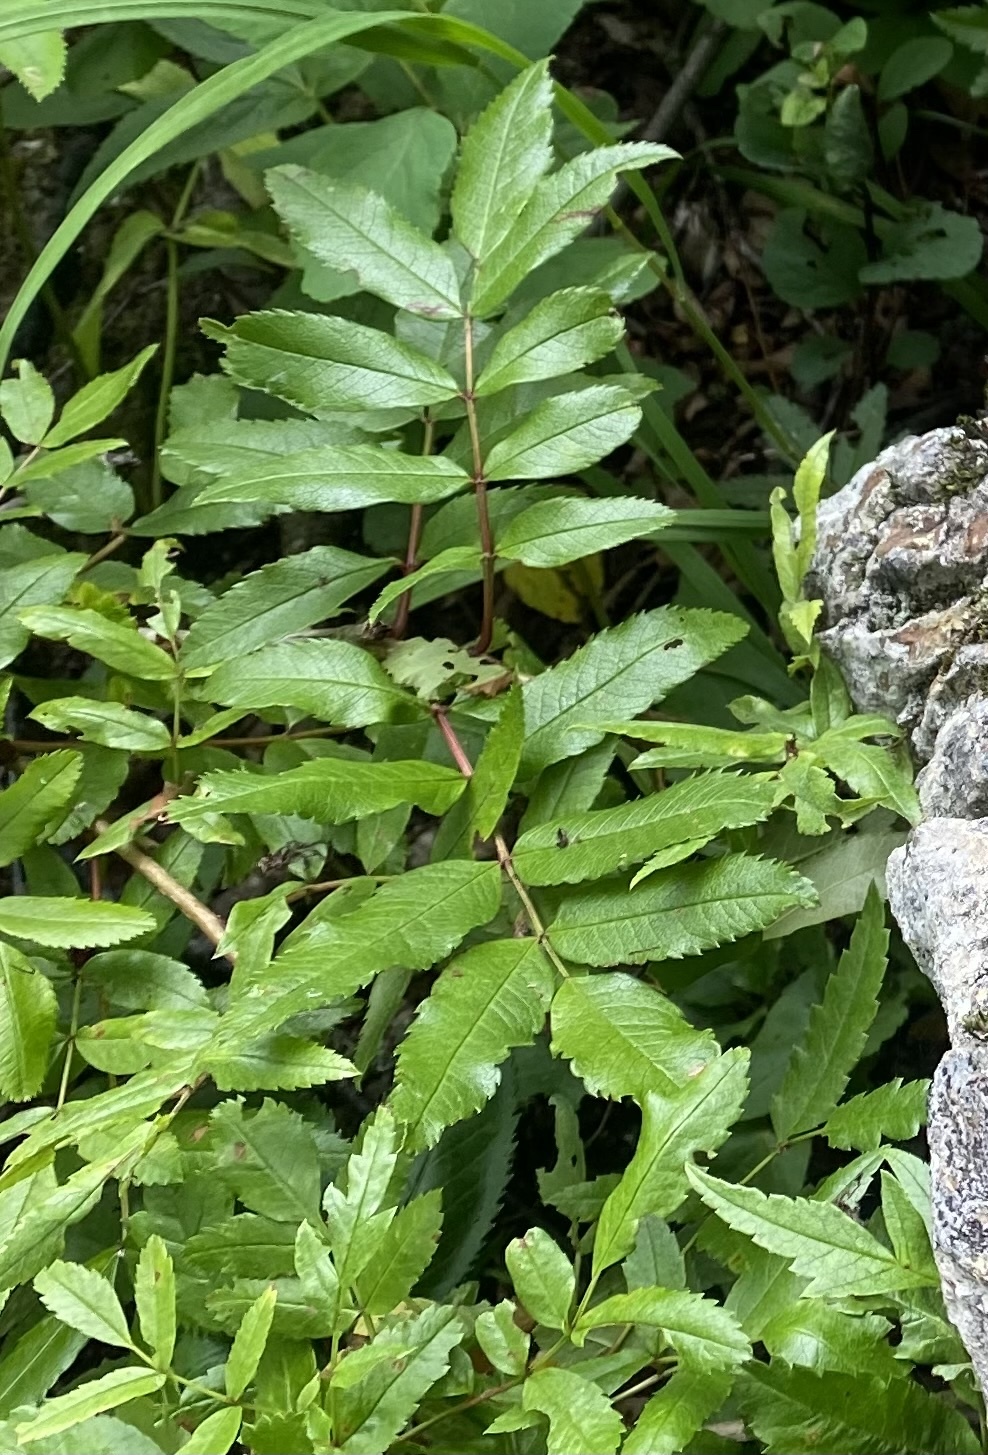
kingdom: Plantae
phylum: Tracheophyta
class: Magnoliopsida
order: Rosales
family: Rosaceae
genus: Sorbus
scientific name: Sorbus sambucifolia
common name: Siberian mountain-ash
